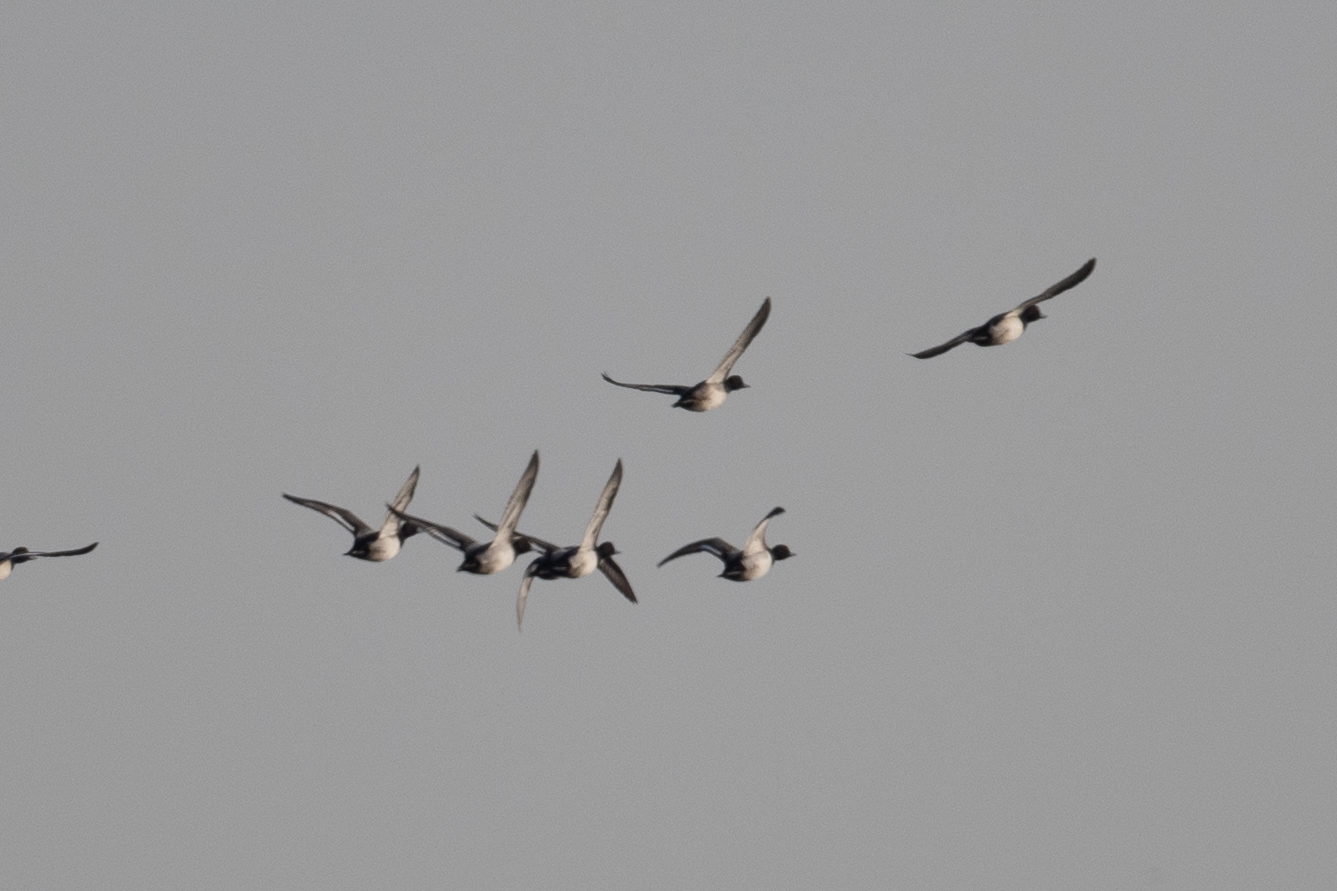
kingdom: Animalia
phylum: Chordata
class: Aves
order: Anseriformes
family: Anatidae
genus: Anas
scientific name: Anas acuta
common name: Northern pintail
